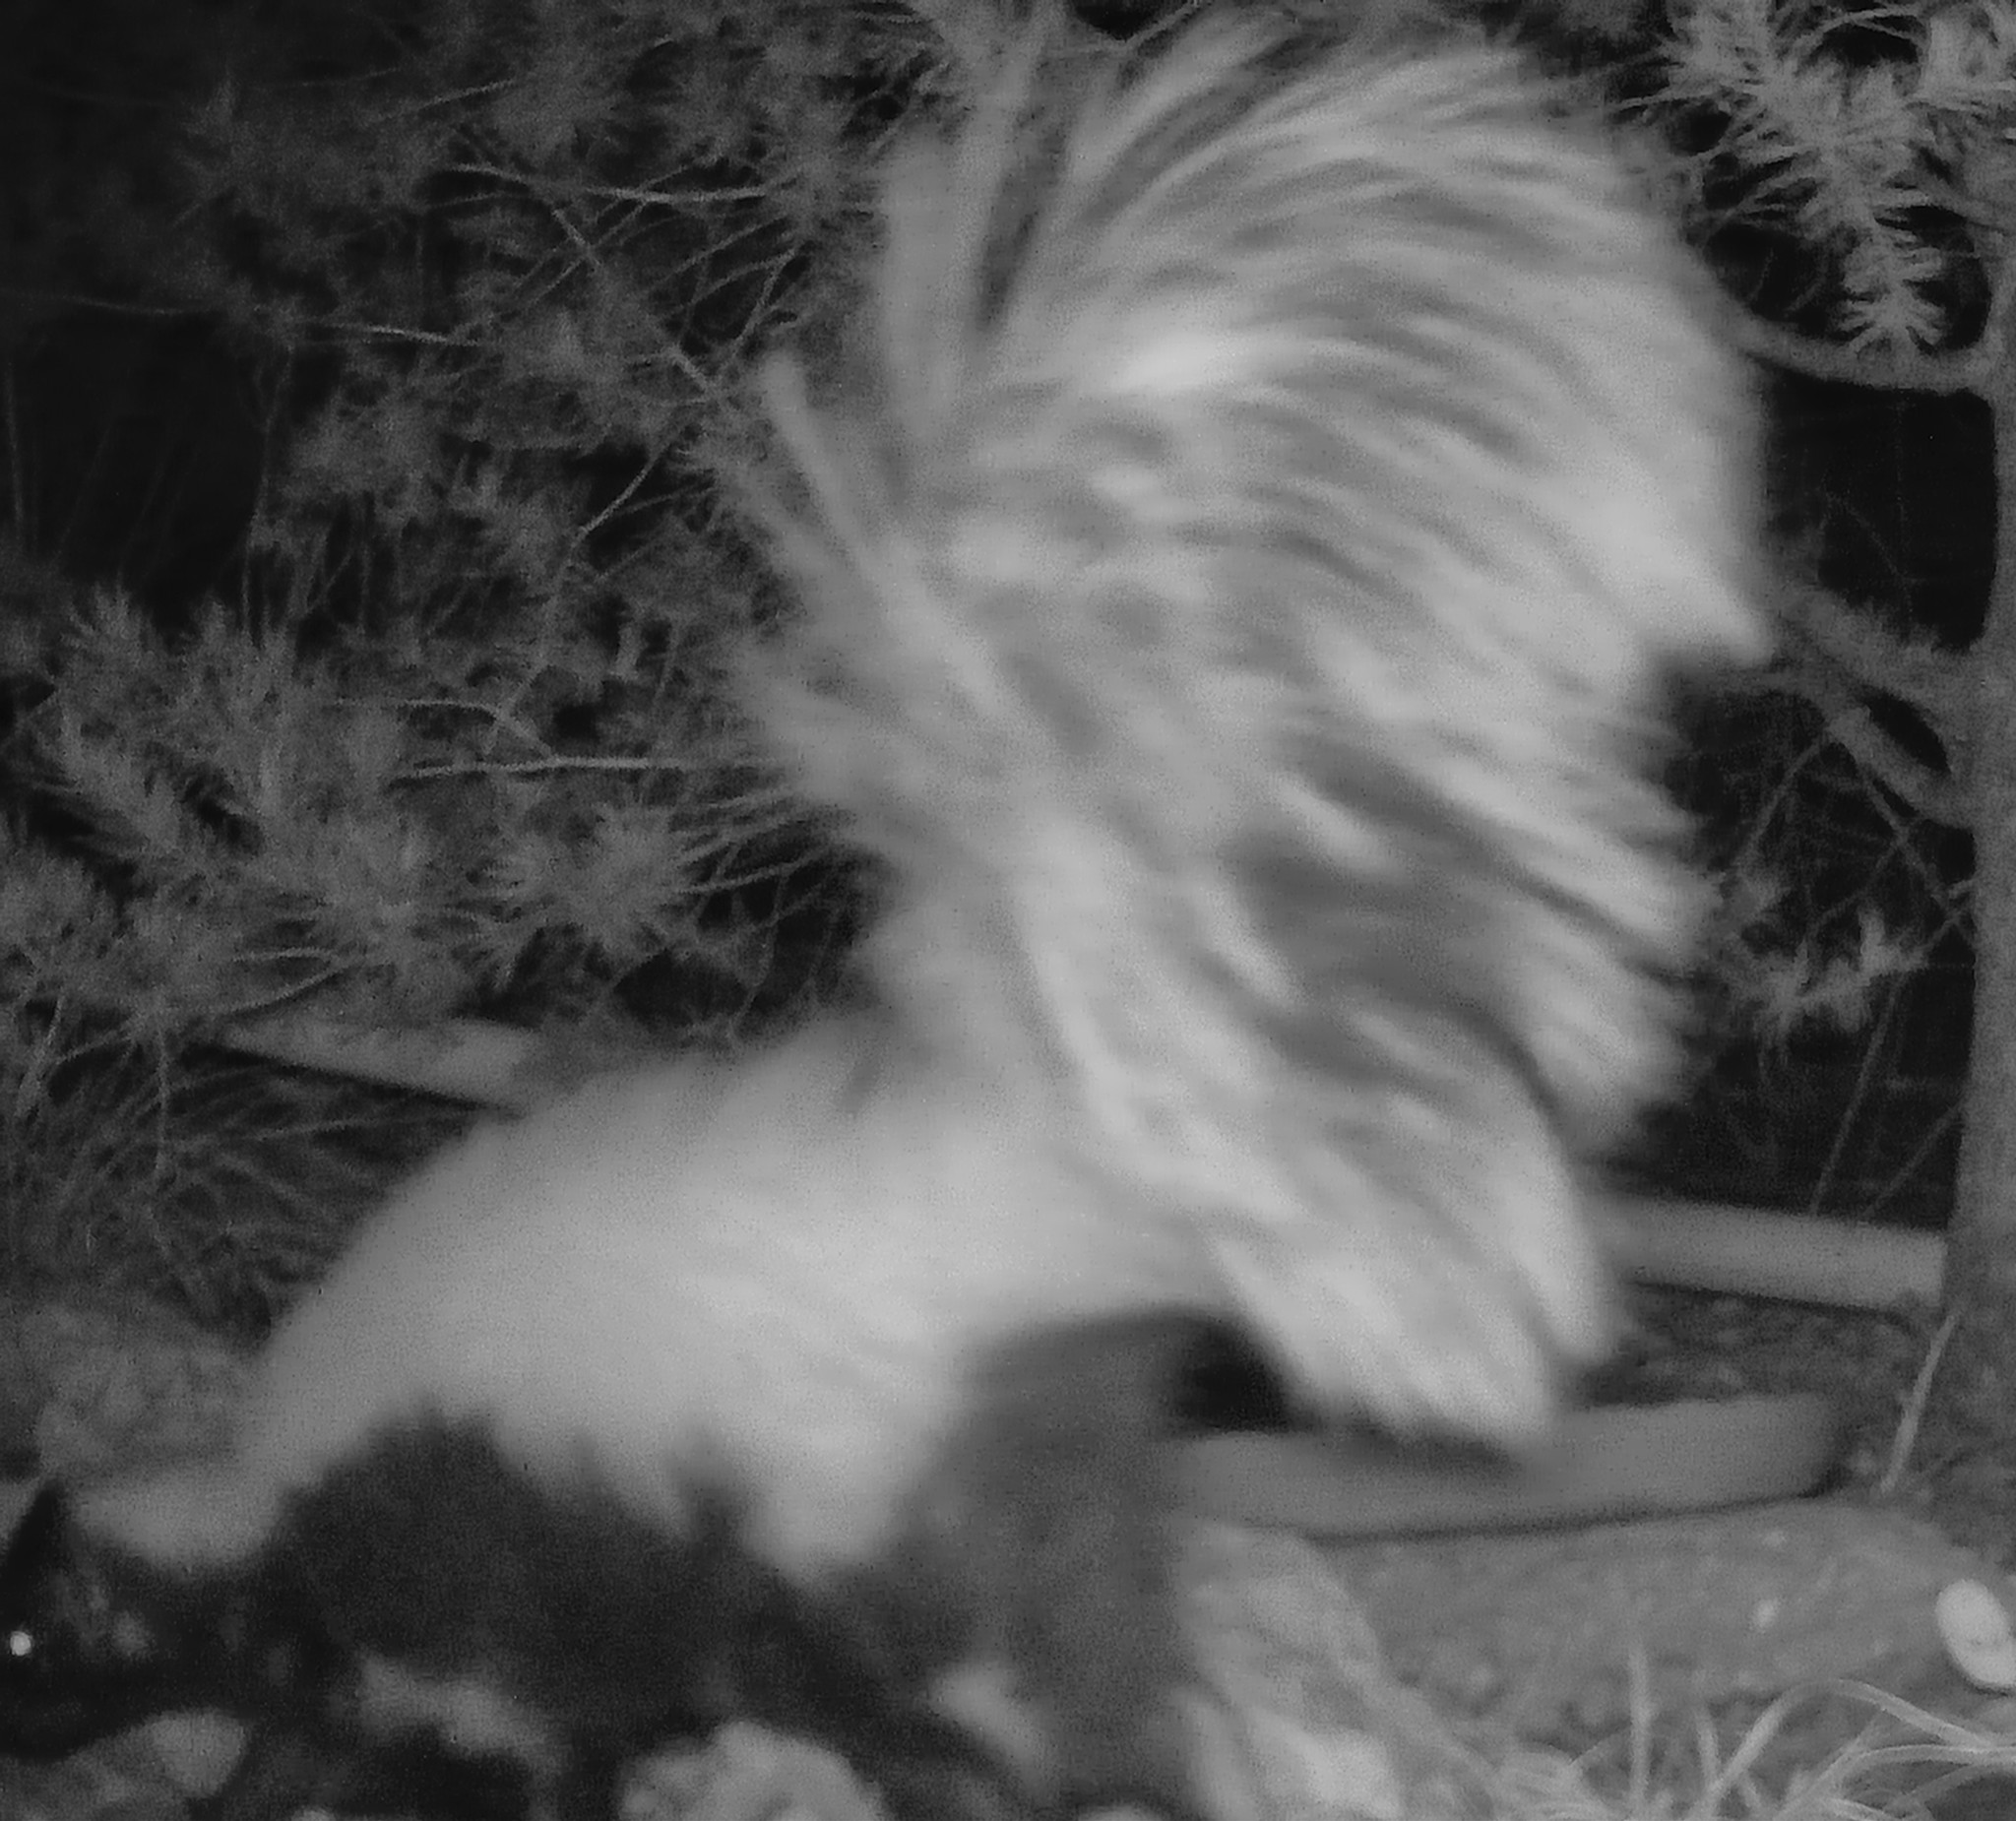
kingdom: Animalia
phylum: Chordata
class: Mammalia
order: Carnivora
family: Mephitidae
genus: Conepatus
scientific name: Conepatus leuconotus
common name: Eastern hog-nosed skunk
